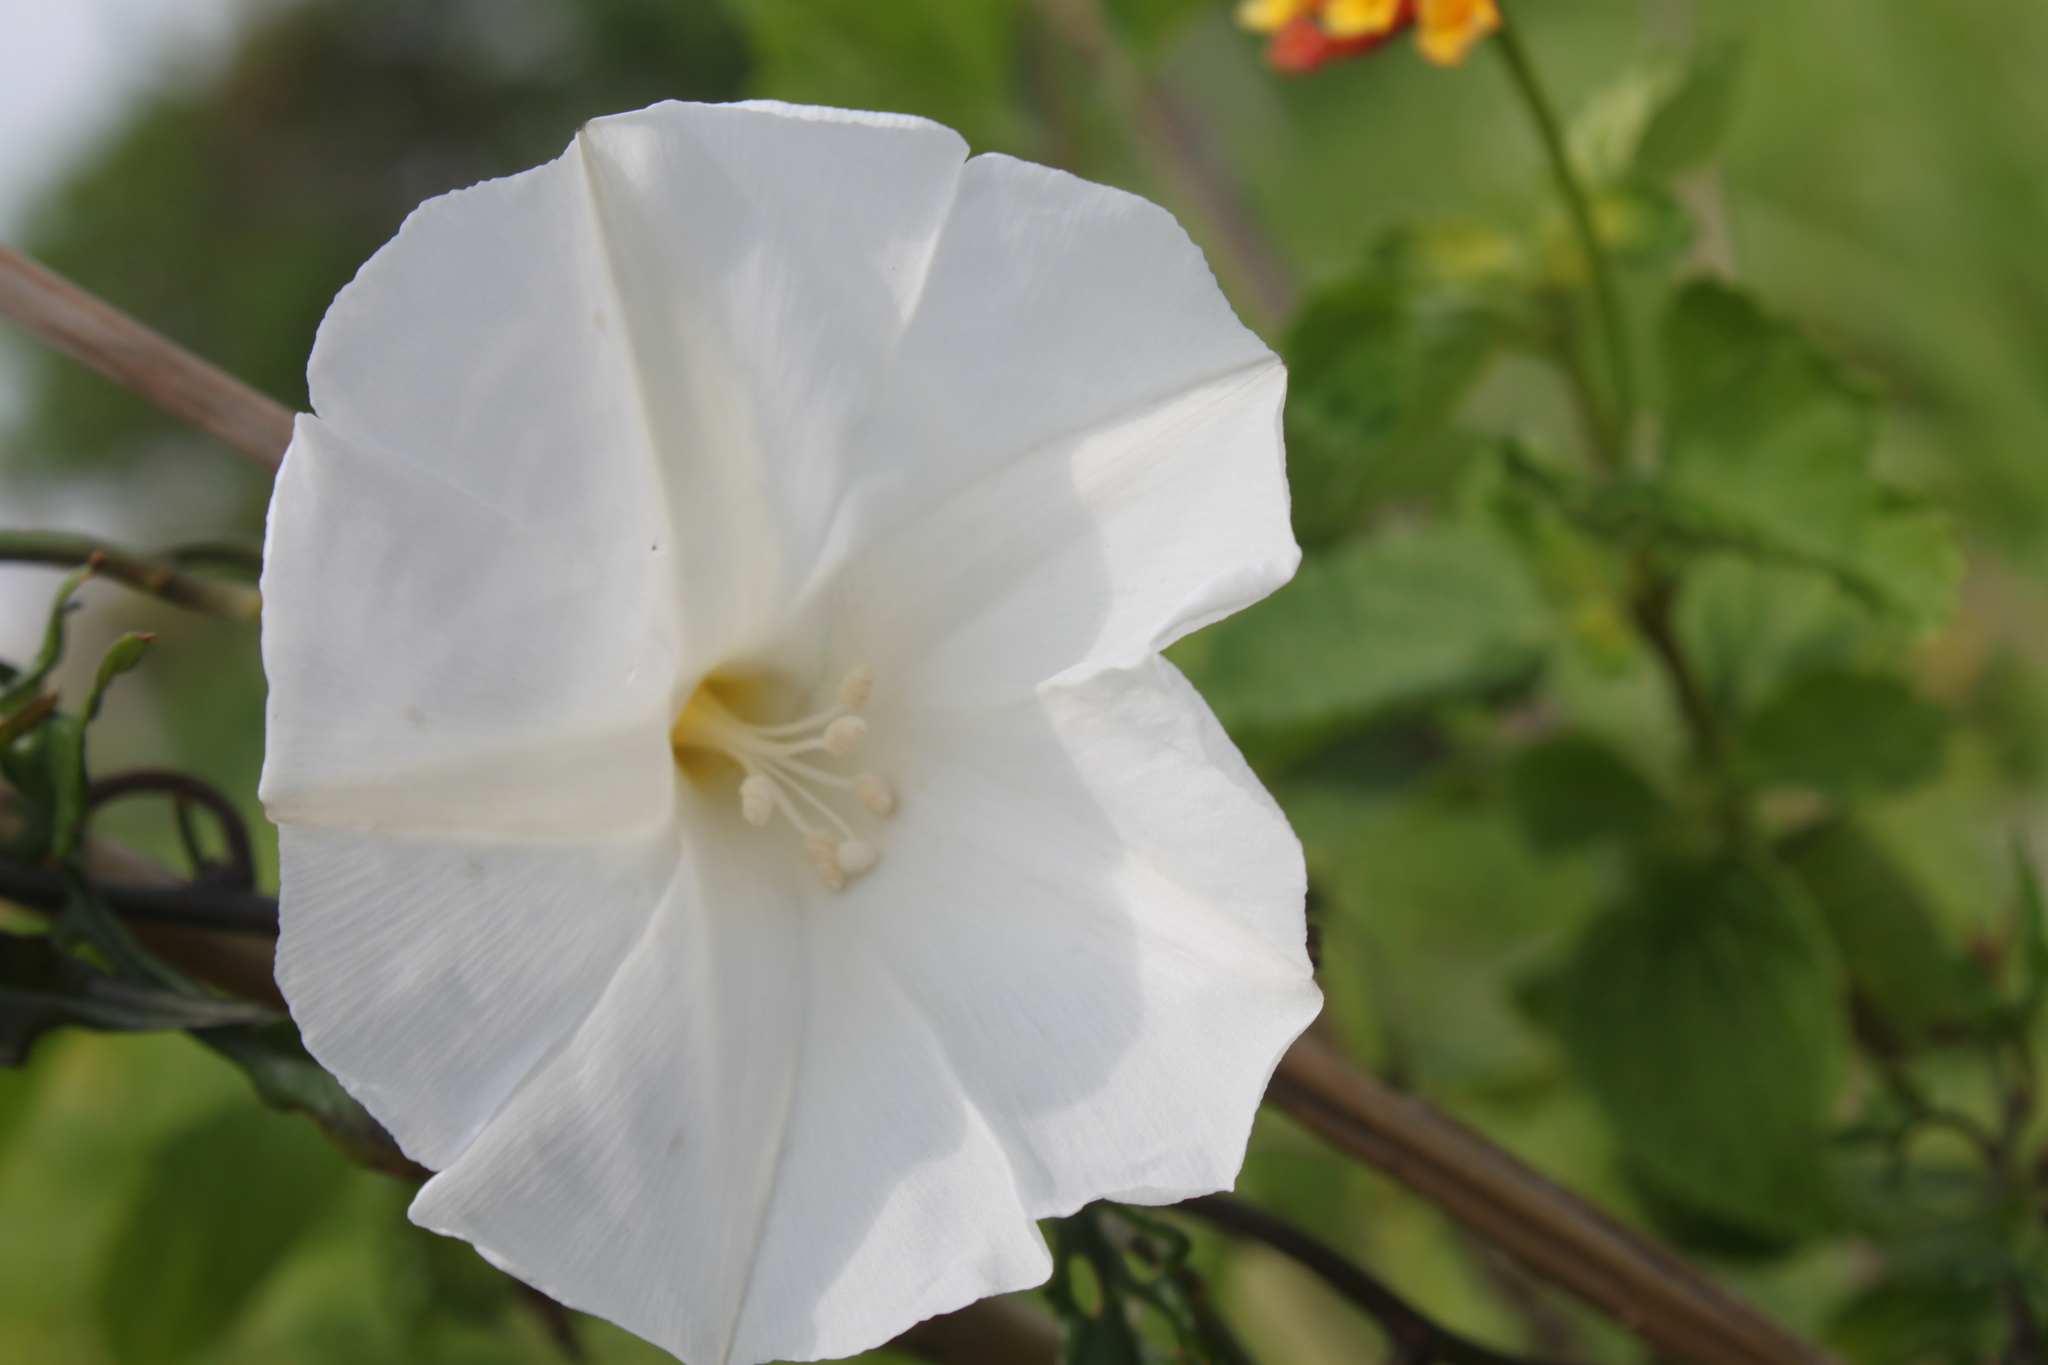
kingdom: Plantae
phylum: Tracheophyta
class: Magnoliopsida
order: Solanales
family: Convolvulaceae
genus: Operculina
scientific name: Operculina pinnatifida
